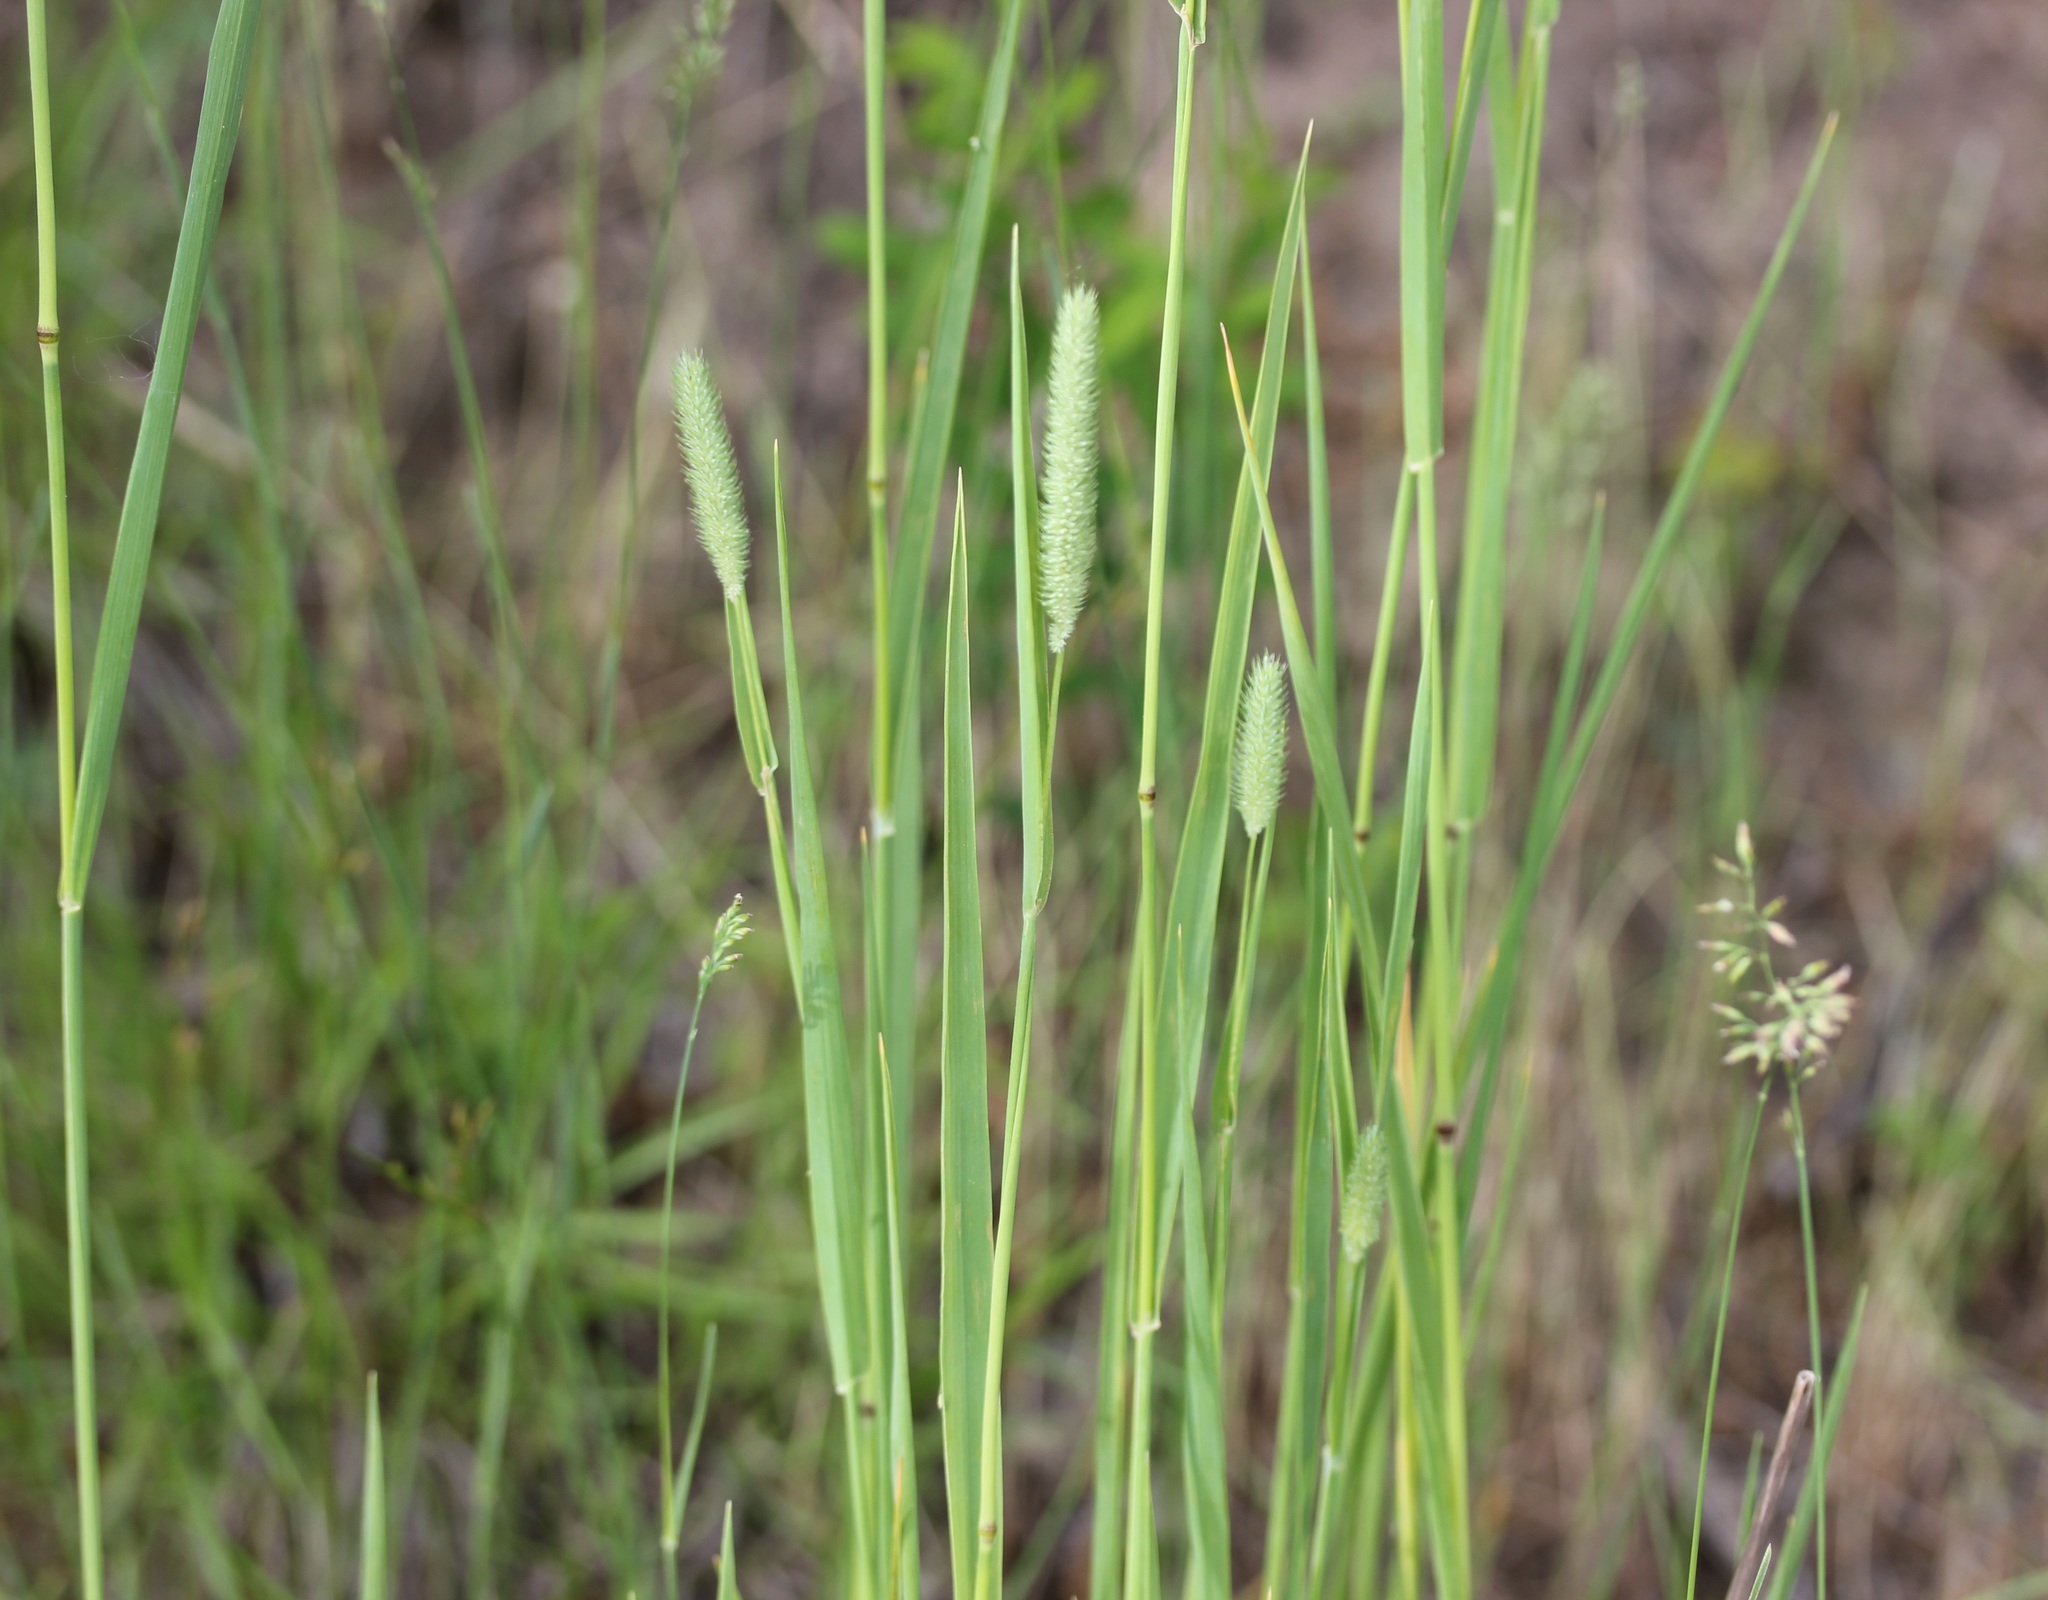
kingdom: Plantae
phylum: Tracheophyta
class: Liliopsida
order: Poales
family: Poaceae
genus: Phleum
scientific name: Phleum pratense
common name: Timothy grass
